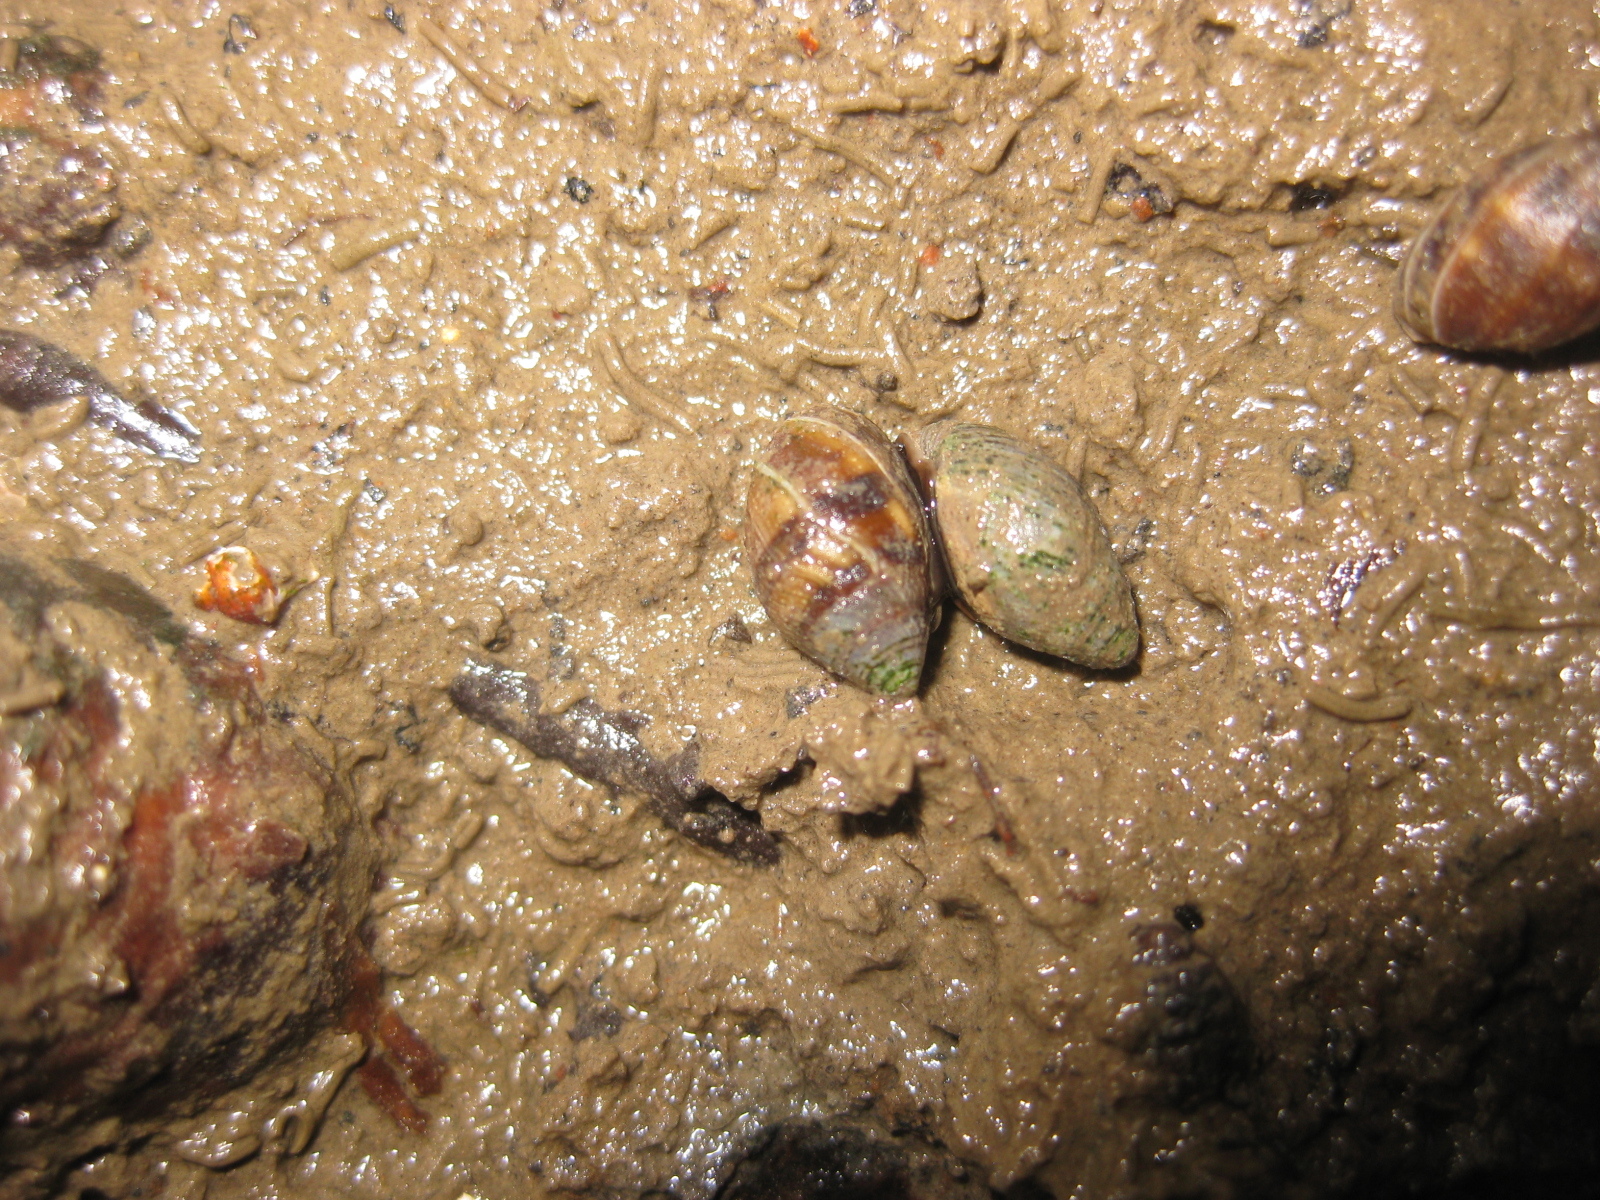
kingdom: Animalia
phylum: Mollusca
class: Gastropoda
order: Ellobiida
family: Ellobiidae
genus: Pleuroloba
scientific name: Pleuroloba costellaris
